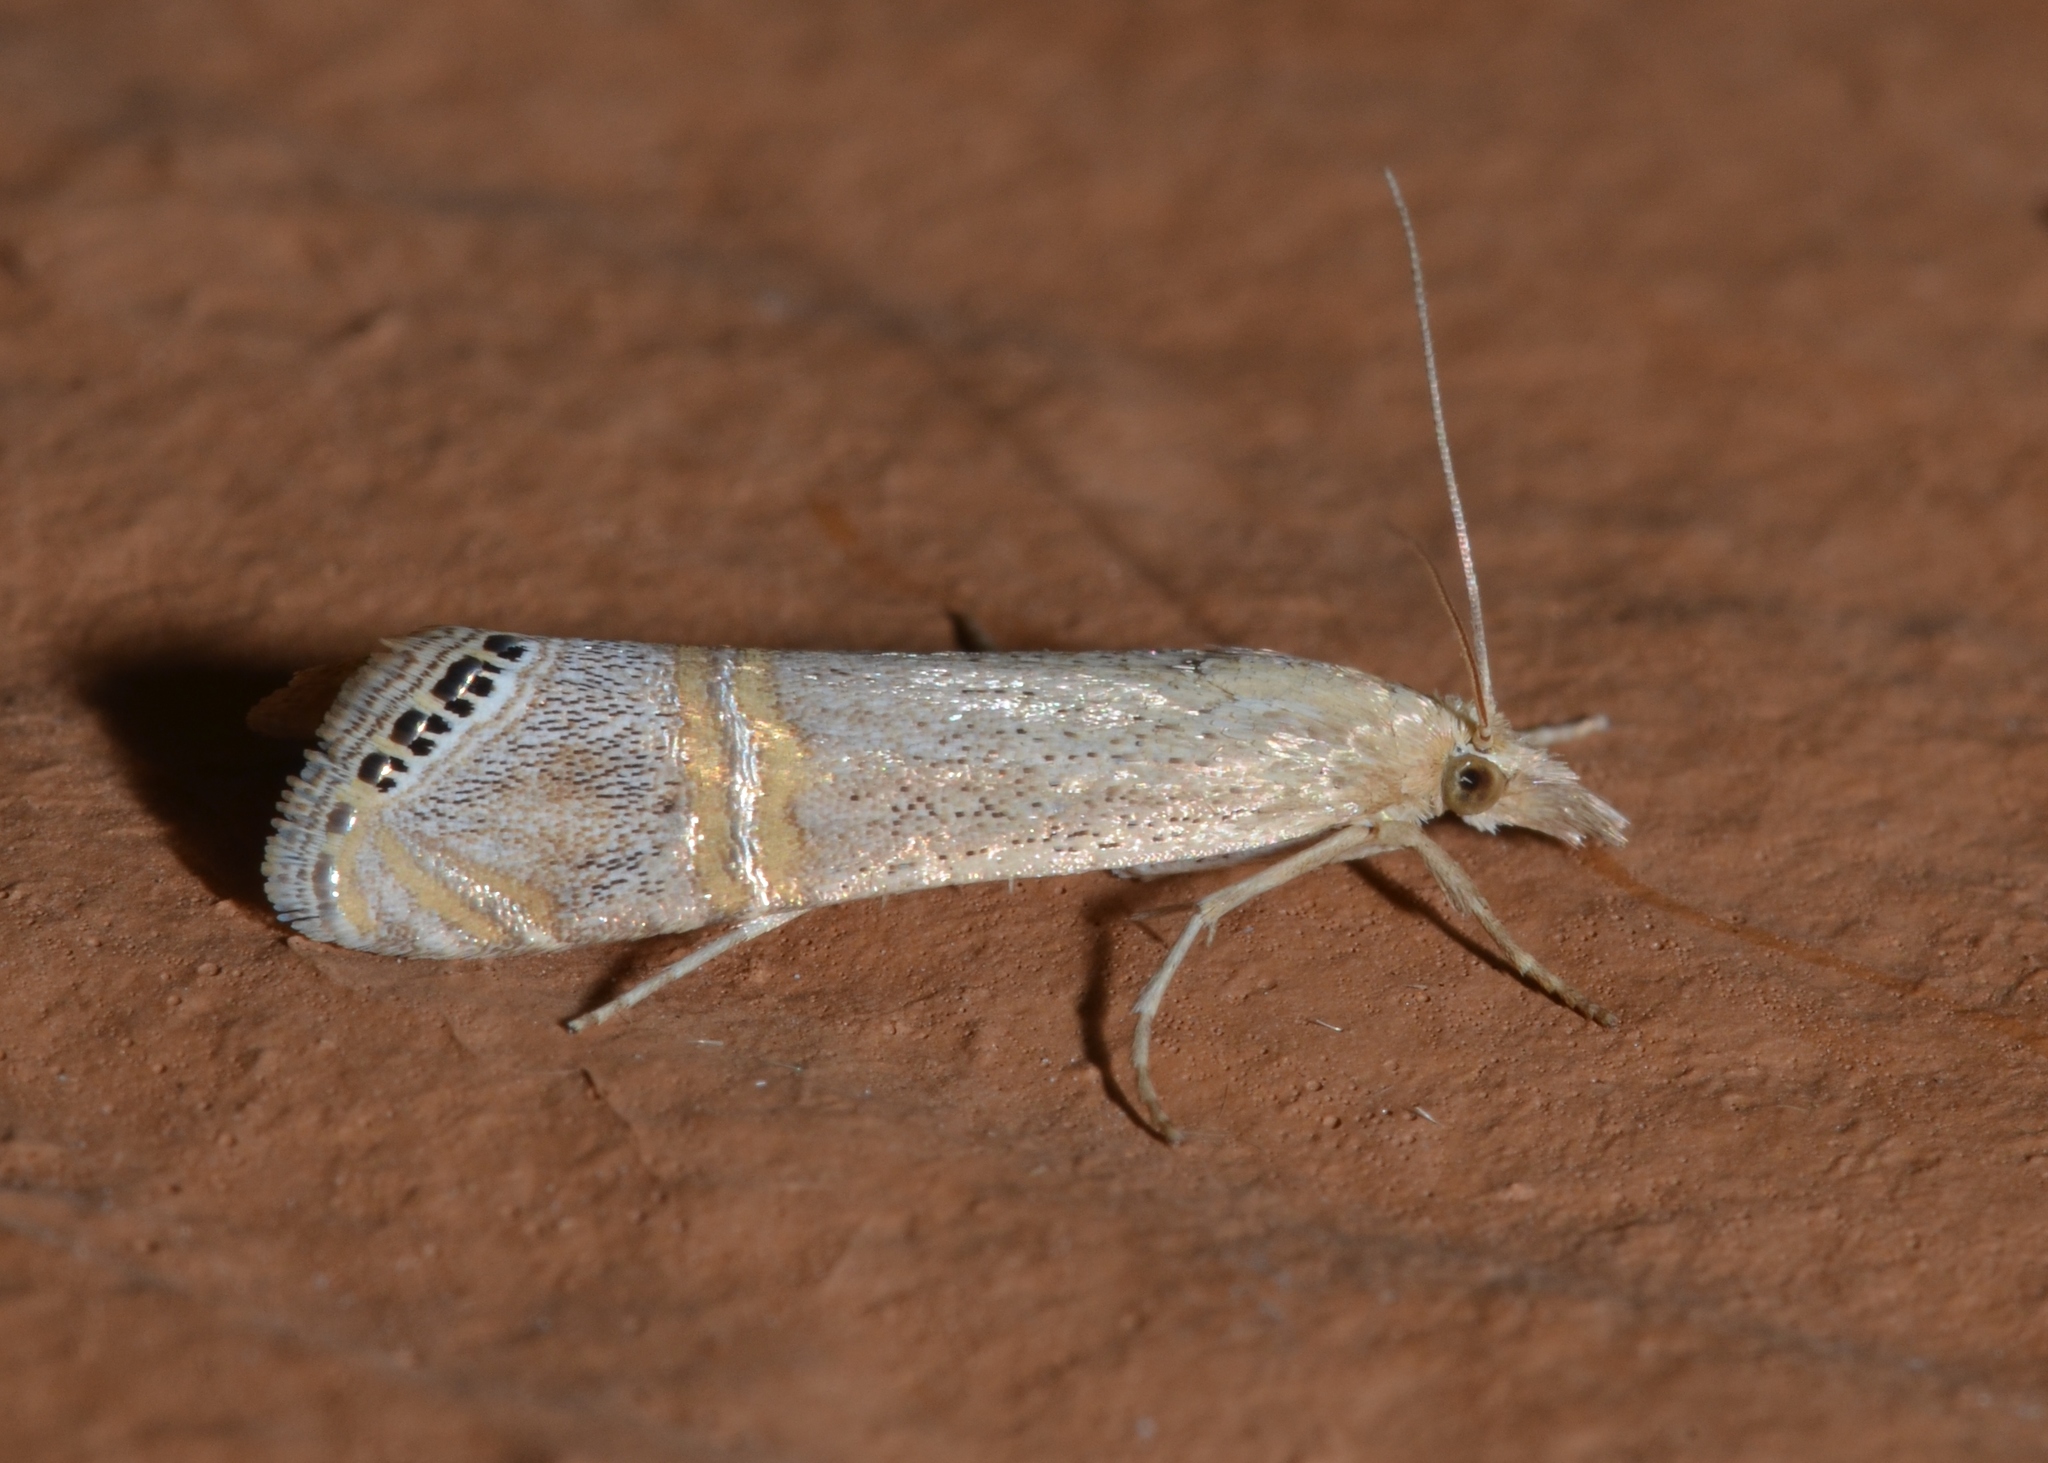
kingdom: Animalia
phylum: Arthropoda
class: Insecta
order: Lepidoptera
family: Crambidae
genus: Euchromius
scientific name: Euchromius ocellea
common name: Necklace veneer moth
